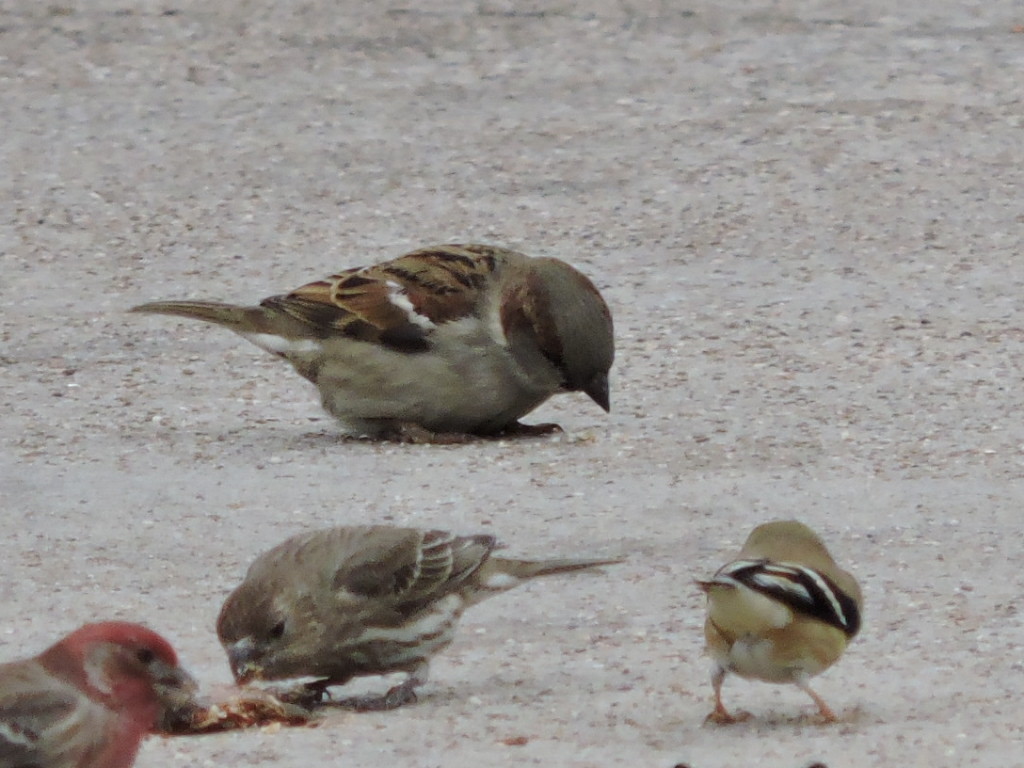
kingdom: Animalia
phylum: Chordata
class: Aves
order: Passeriformes
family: Passeridae
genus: Passer
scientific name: Passer domesticus
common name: House sparrow
